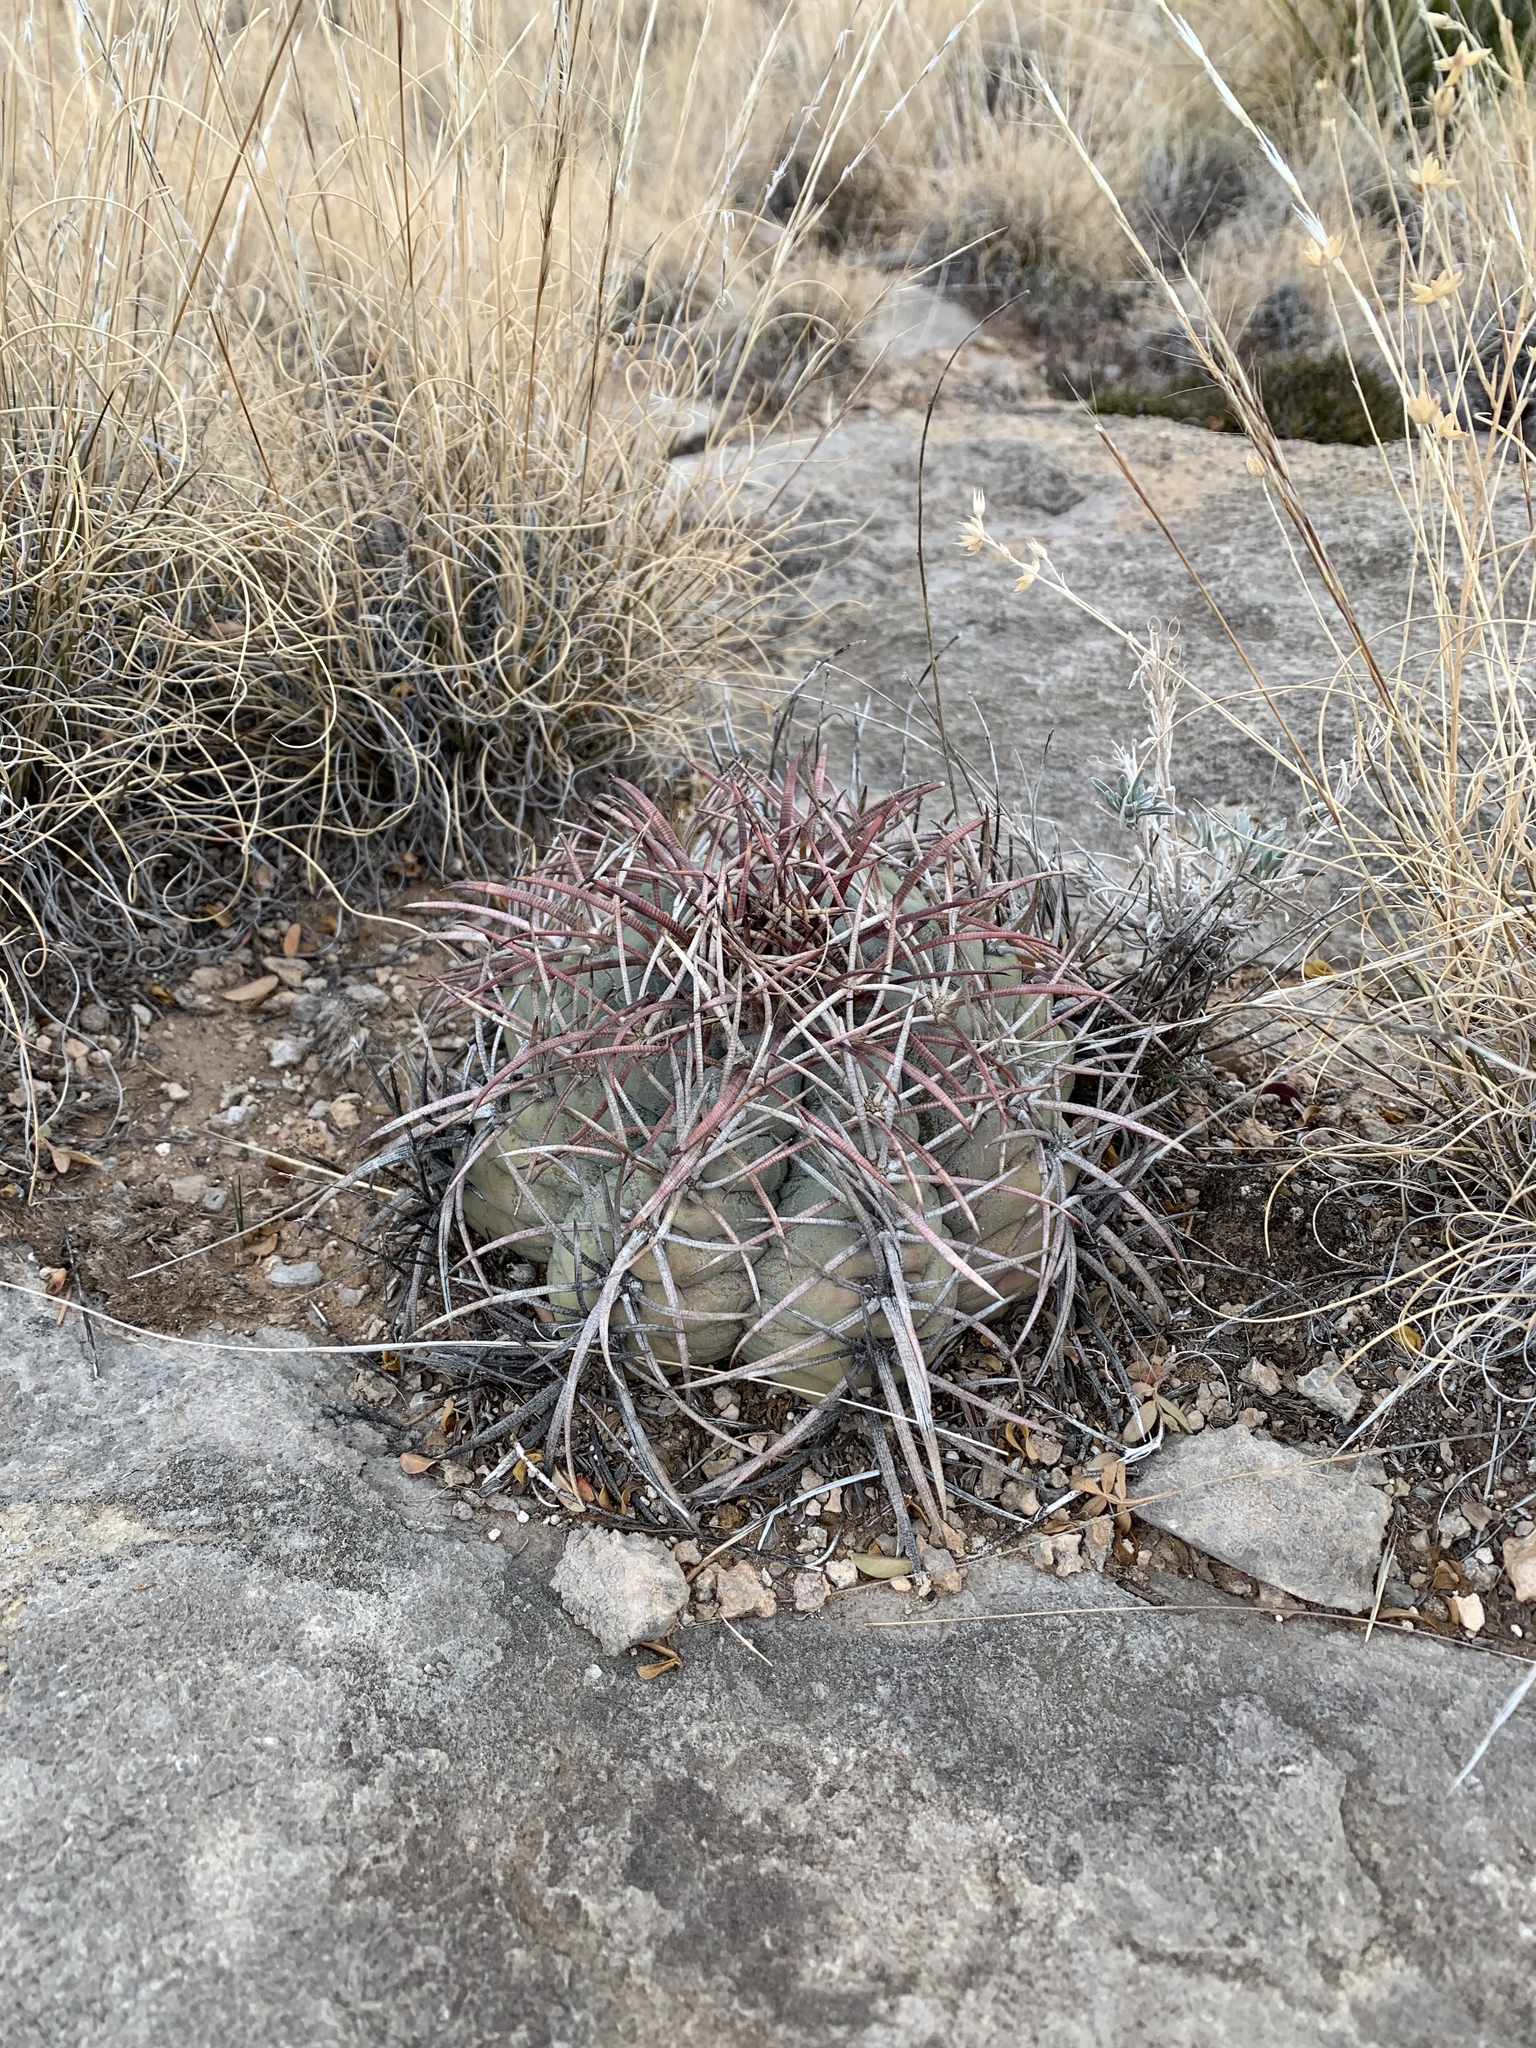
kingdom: Plantae
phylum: Tracheophyta
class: Magnoliopsida
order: Caryophyllales
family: Cactaceae
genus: Echinocactus
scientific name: Echinocactus horizonthalonius
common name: Devilshead
